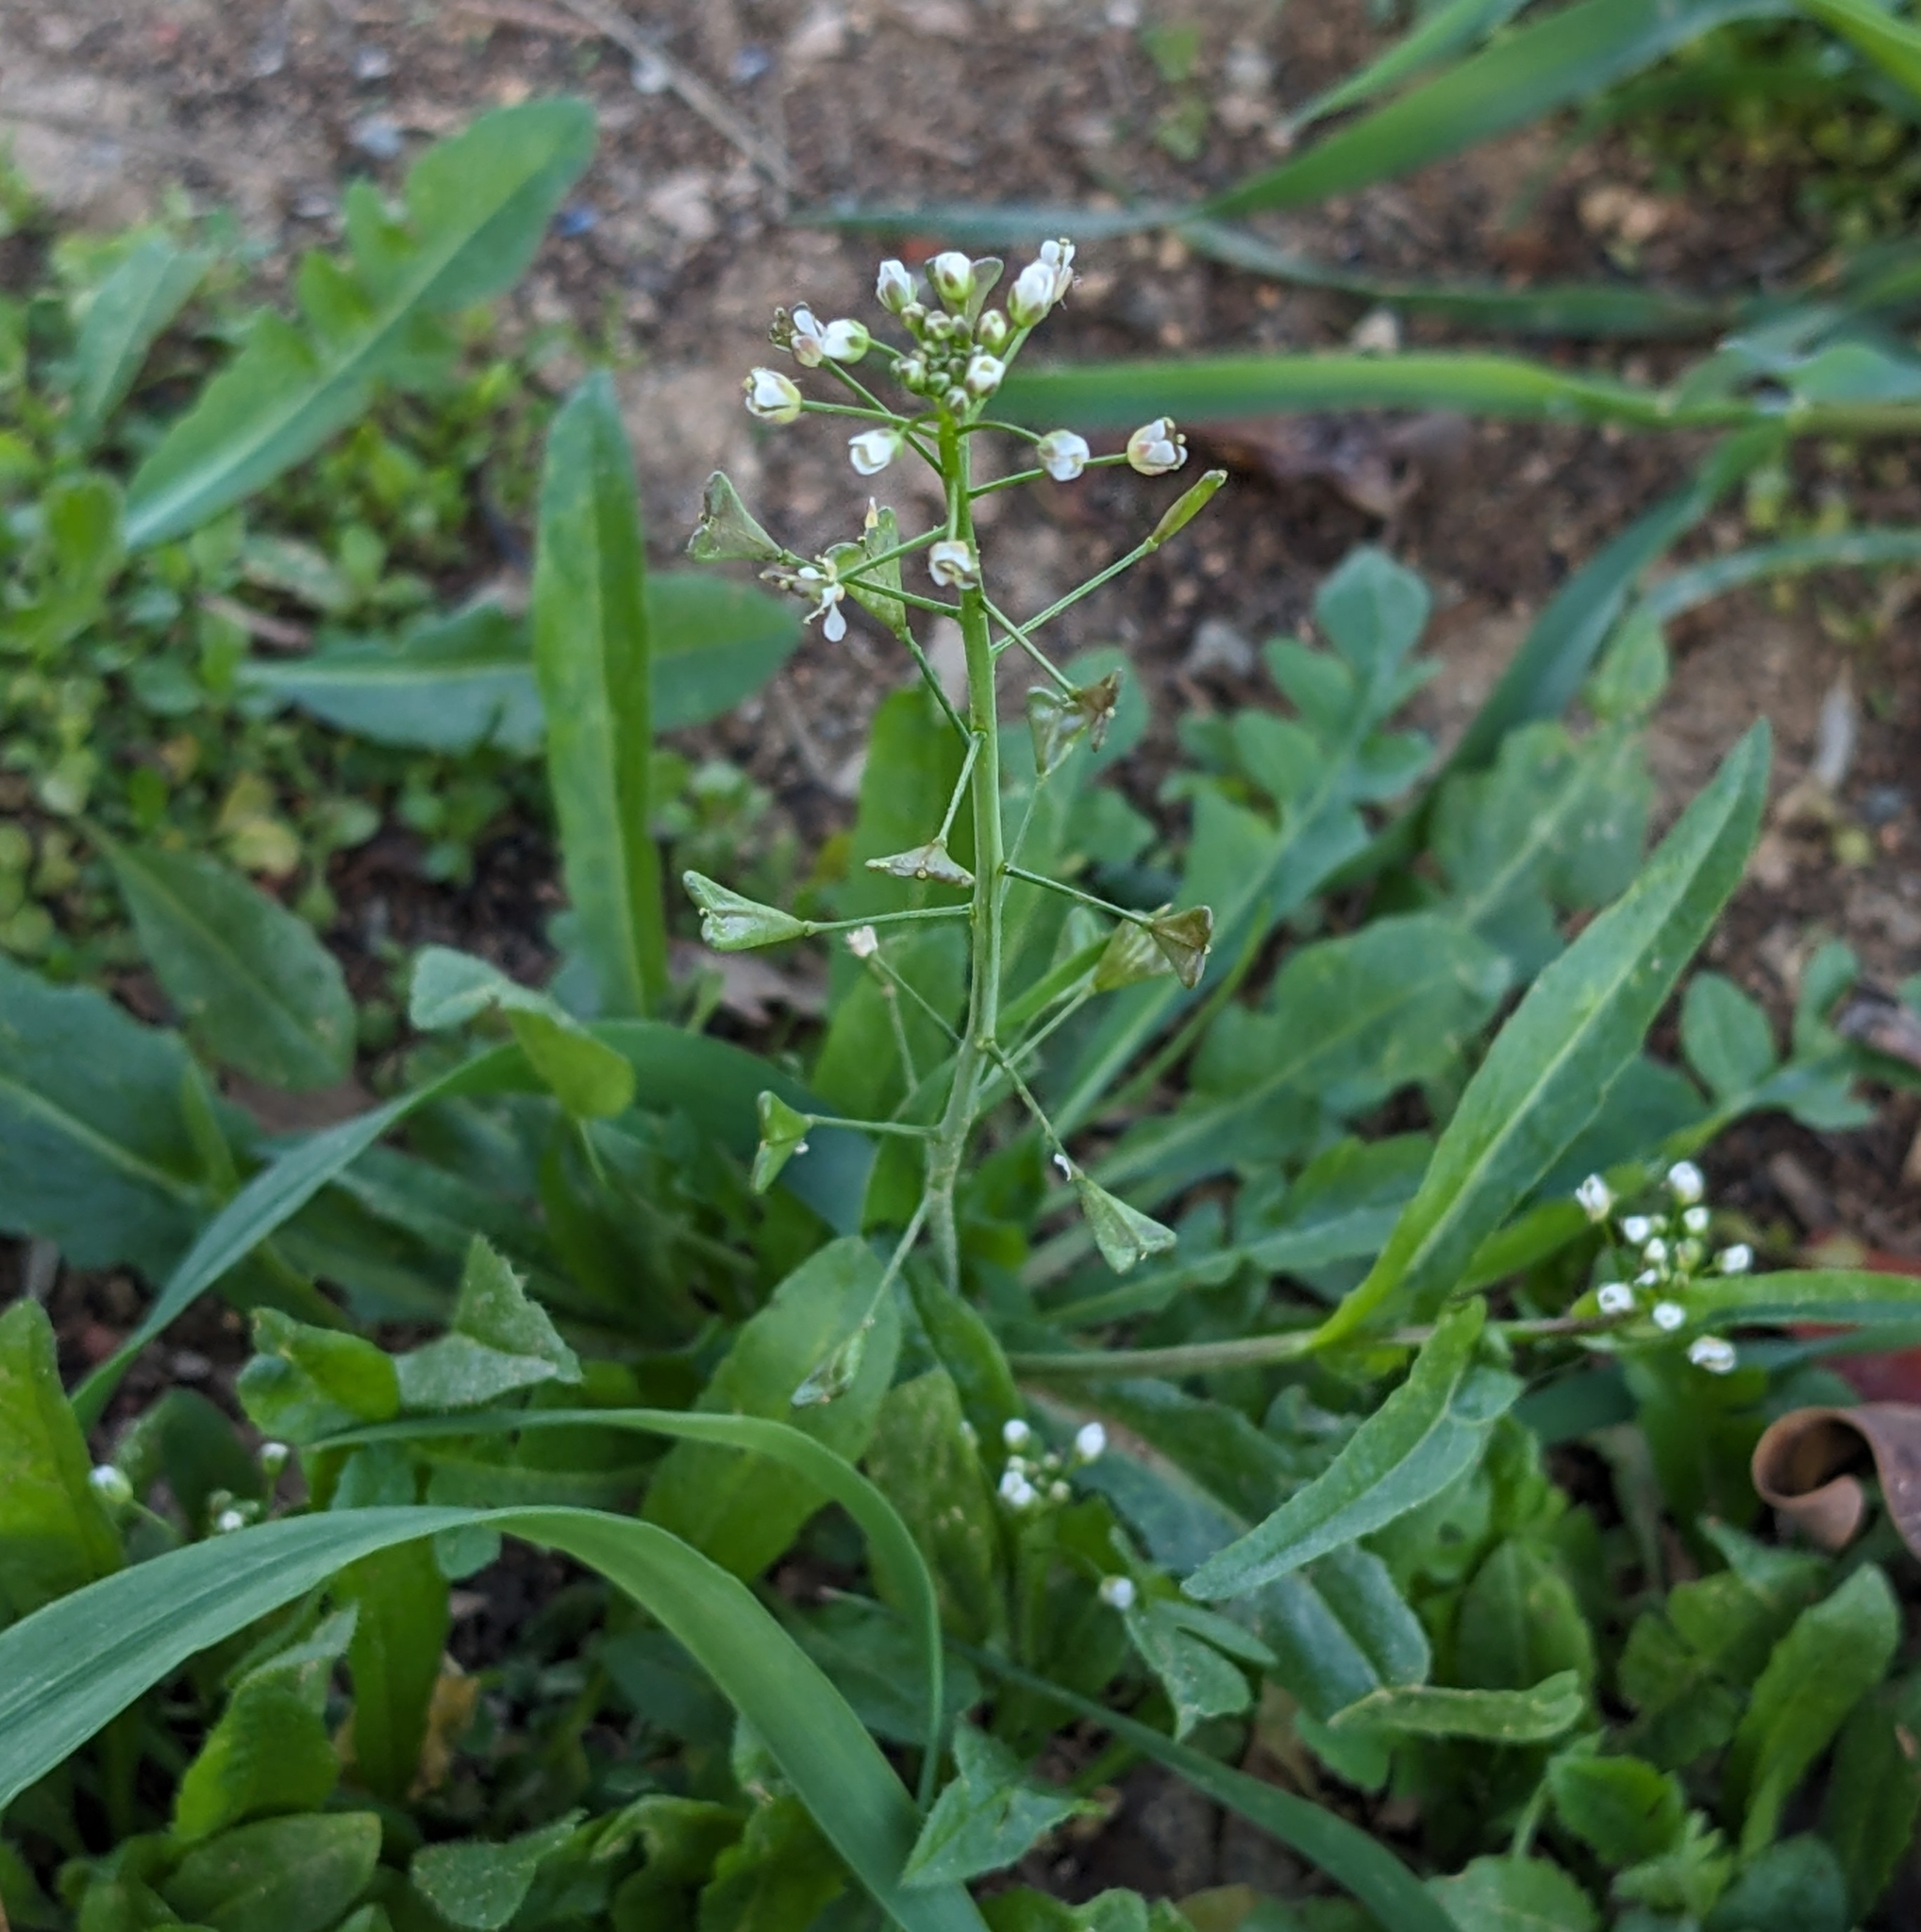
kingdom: Plantae
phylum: Tracheophyta
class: Magnoliopsida
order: Brassicales
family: Brassicaceae
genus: Capsella
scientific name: Capsella bursa-pastoris
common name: Shepherd's purse
